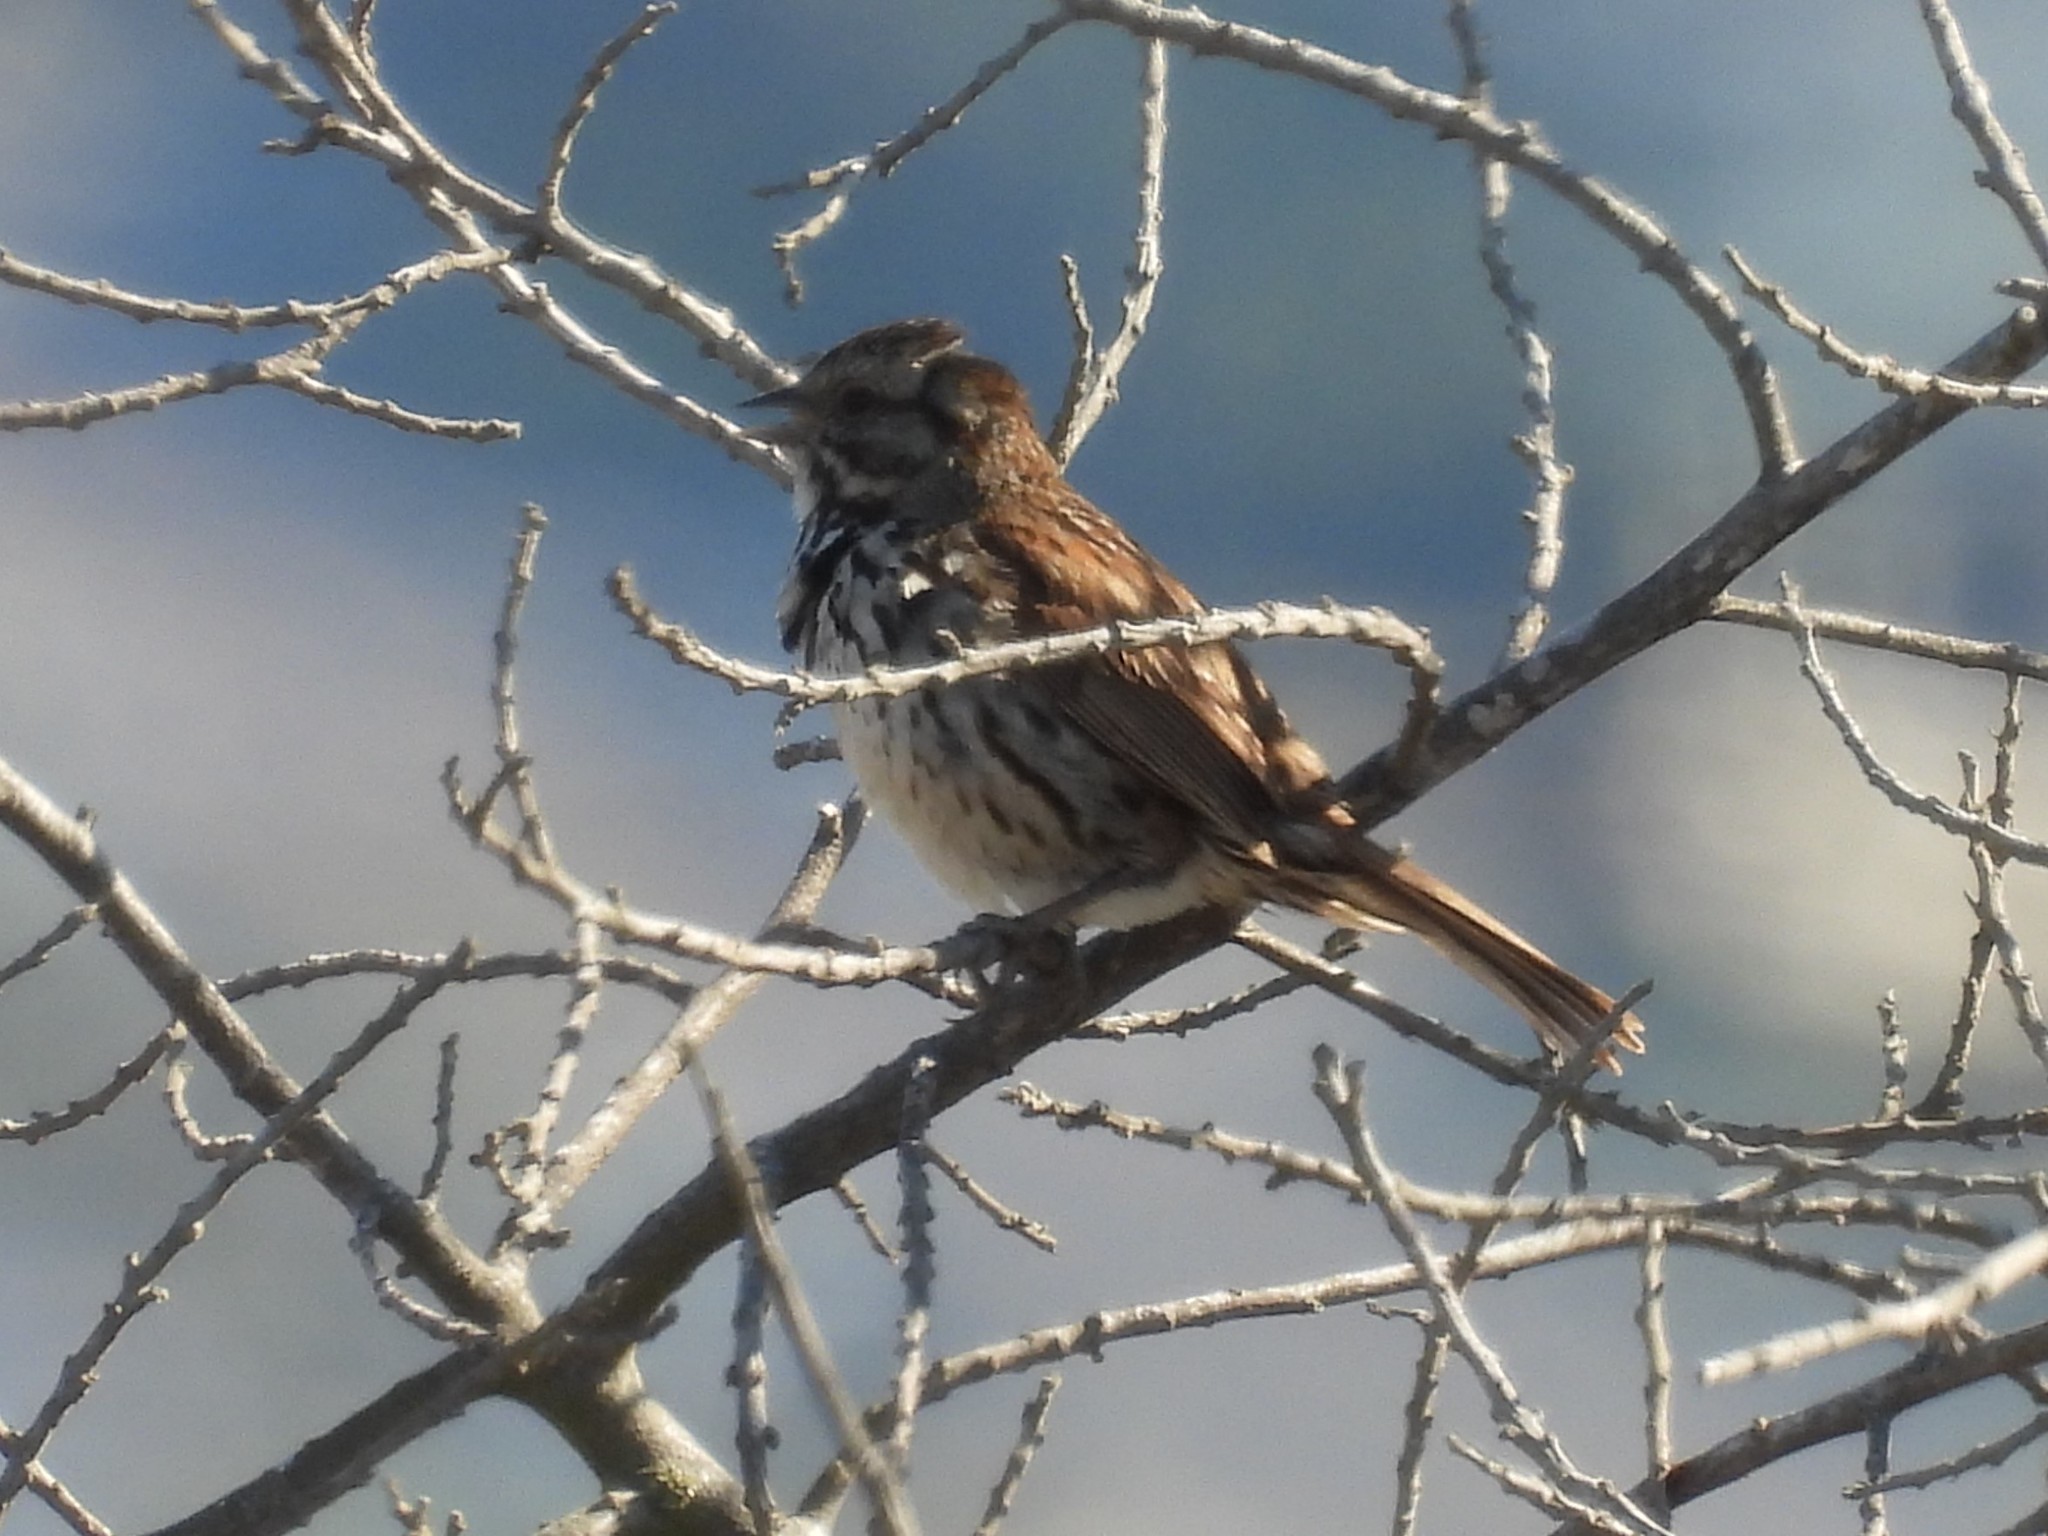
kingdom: Animalia
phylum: Chordata
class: Aves
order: Passeriformes
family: Passerellidae
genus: Melospiza
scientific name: Melospiza melodia
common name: Song sparrow
